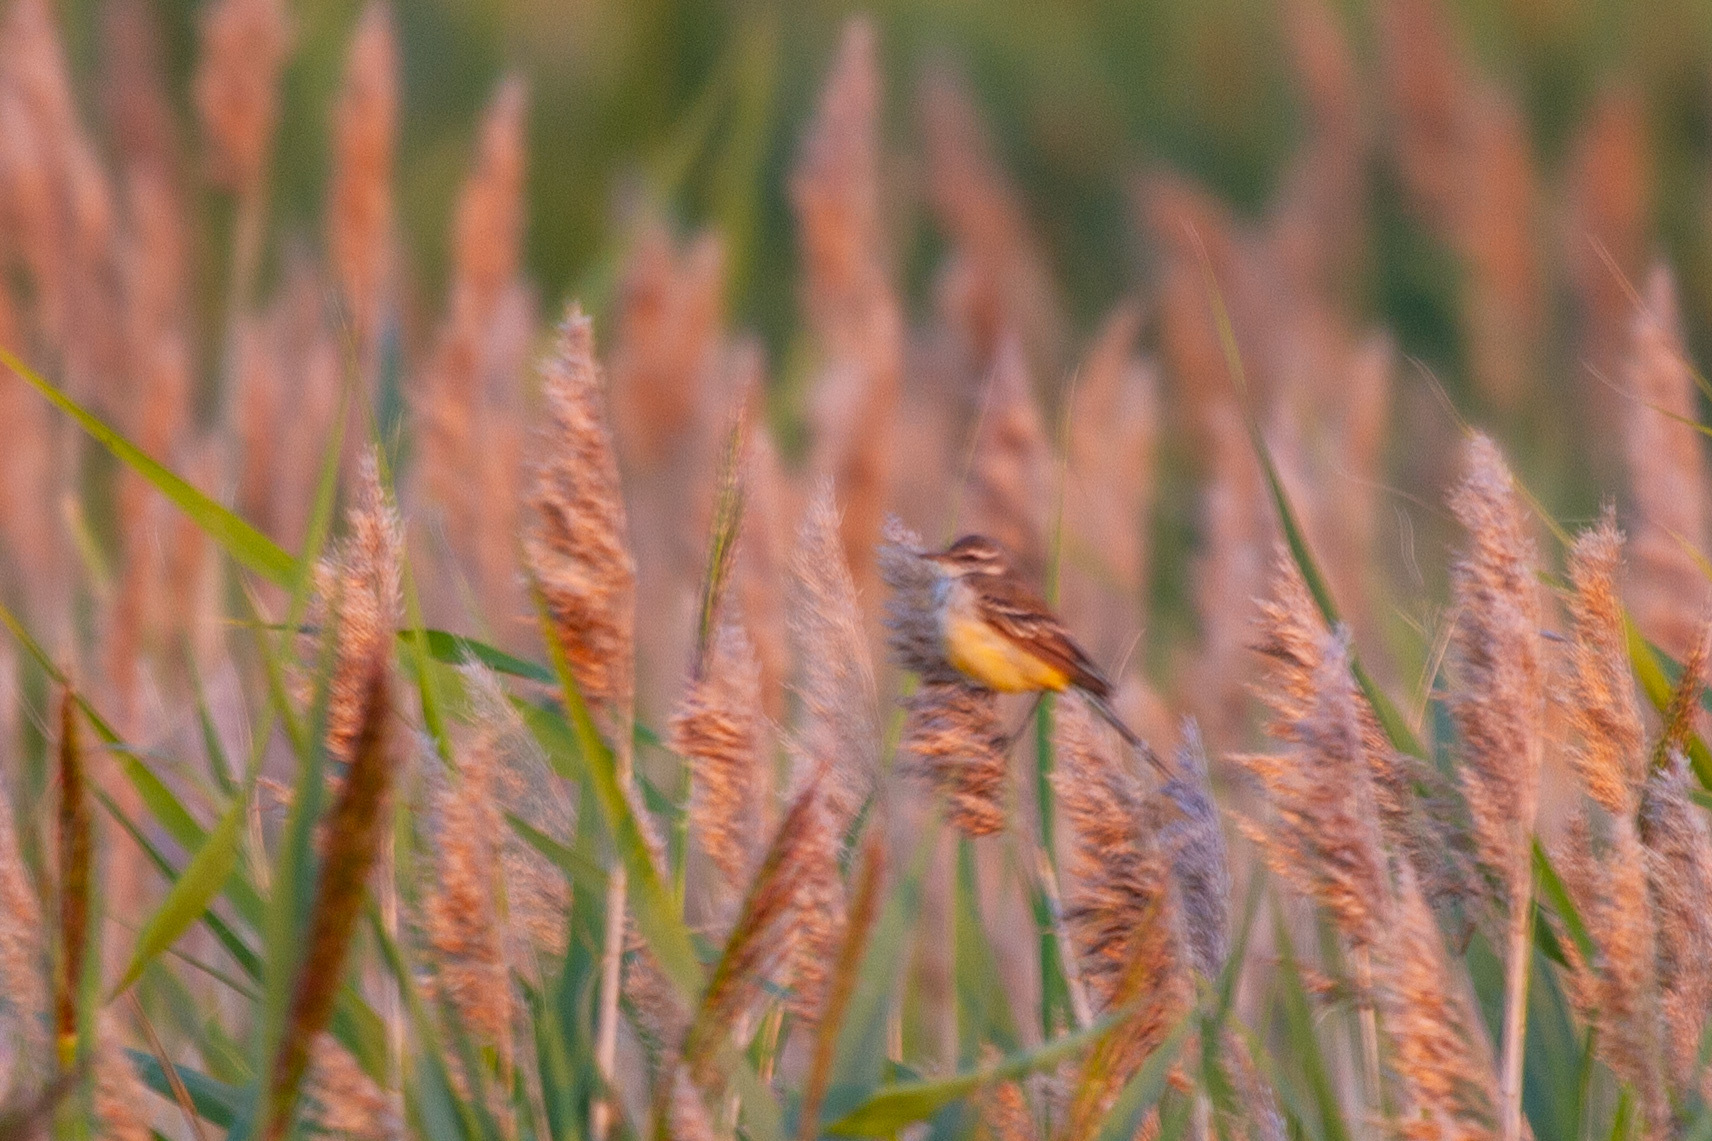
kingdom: Animalia
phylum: Chordata
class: Aves
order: Passeriformes
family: Motacillidae
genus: Motacilla
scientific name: Motacilla flava
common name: Western yellow wagtail
